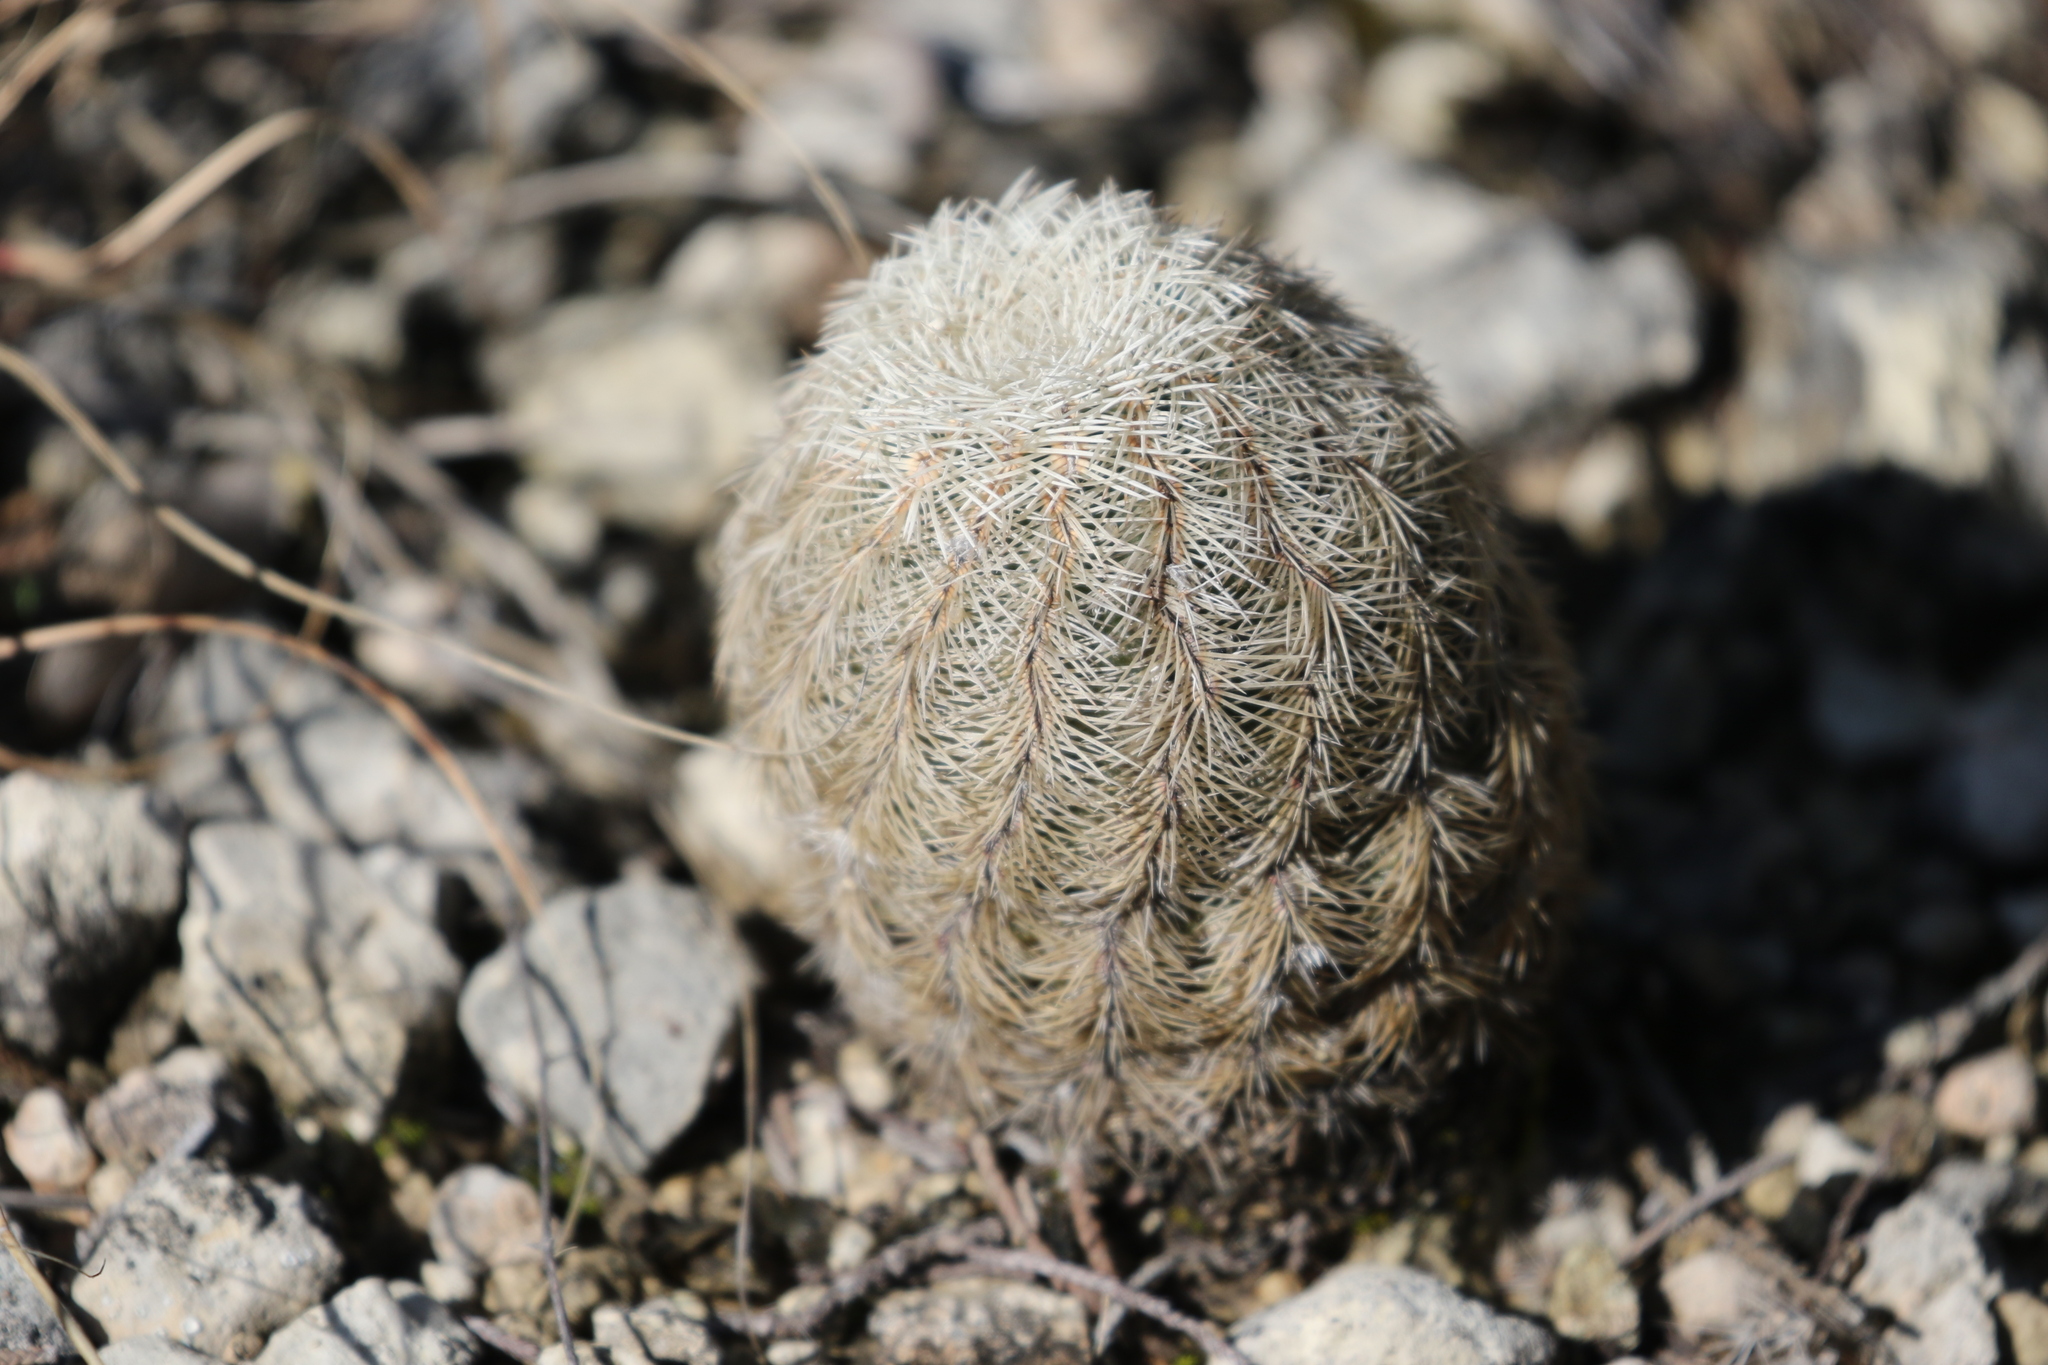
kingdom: Plantae
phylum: Tracheophyta
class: Magnoliopsida
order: Caryophyllales
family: Cactaceae
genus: Echinocereus
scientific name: Echinocereus reichenbachii
